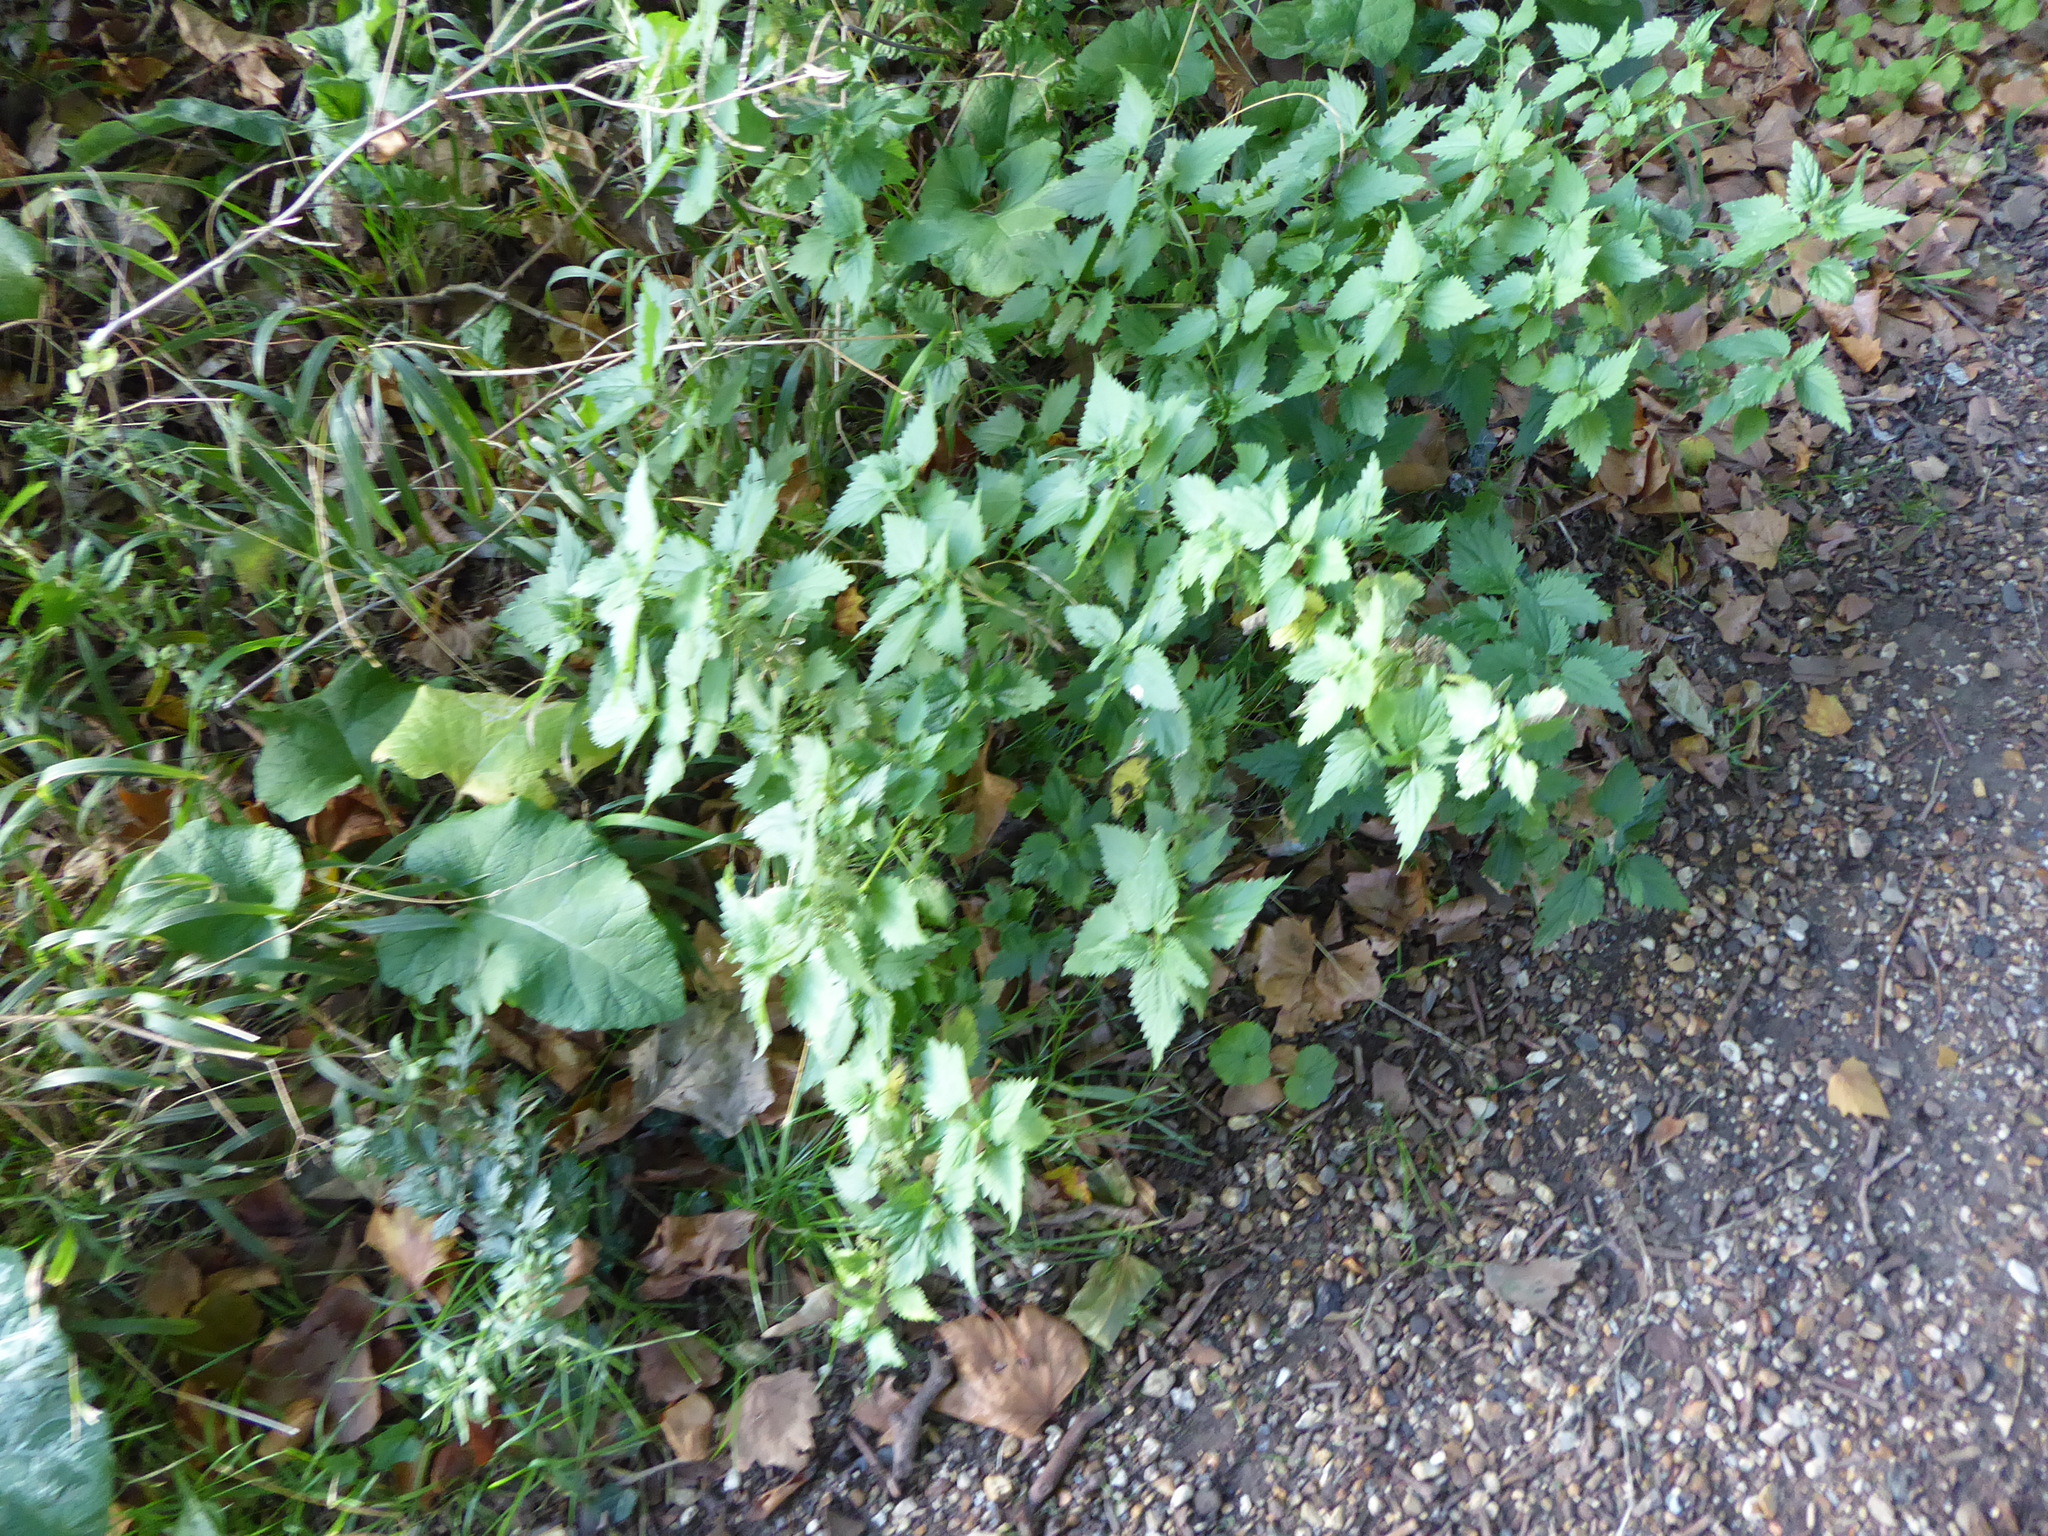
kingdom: Plantae
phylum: Tracheophyta
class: Magnoliopsida
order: Rosales
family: Urticaceae
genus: Urtica
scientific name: Urtica dioica
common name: Common nettle
